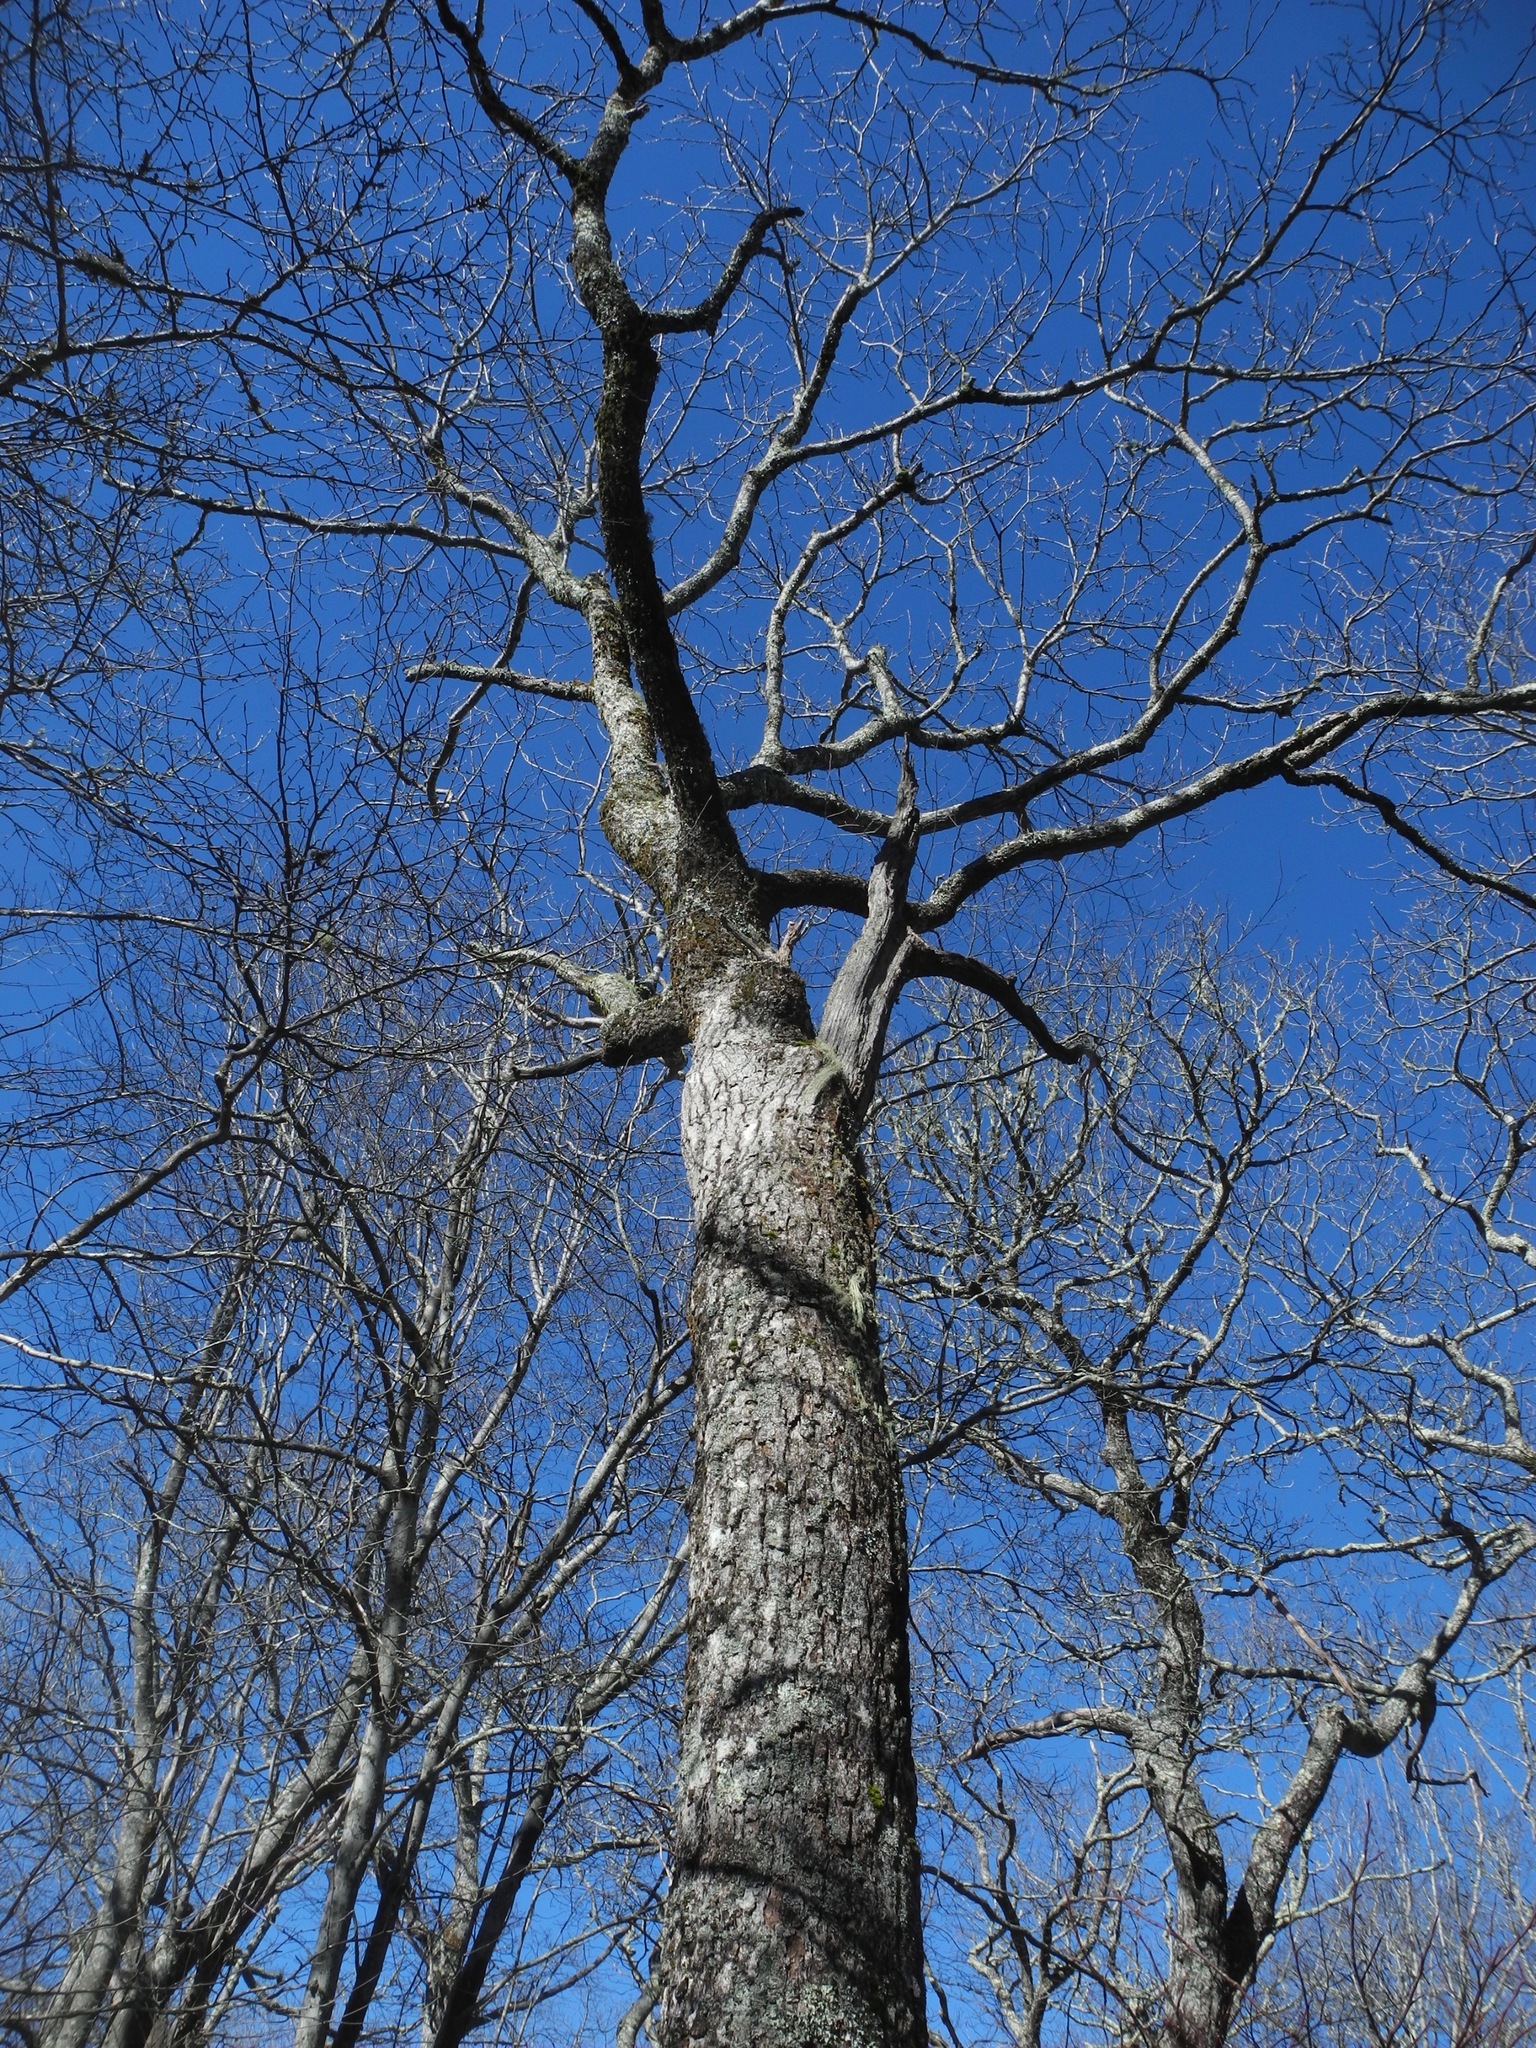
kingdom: Plantae
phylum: Tracheophyta
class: Magnoliopsida
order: Fagales
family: Fagaceae
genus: Quercus
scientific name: Quercus rubra
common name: Red oak
